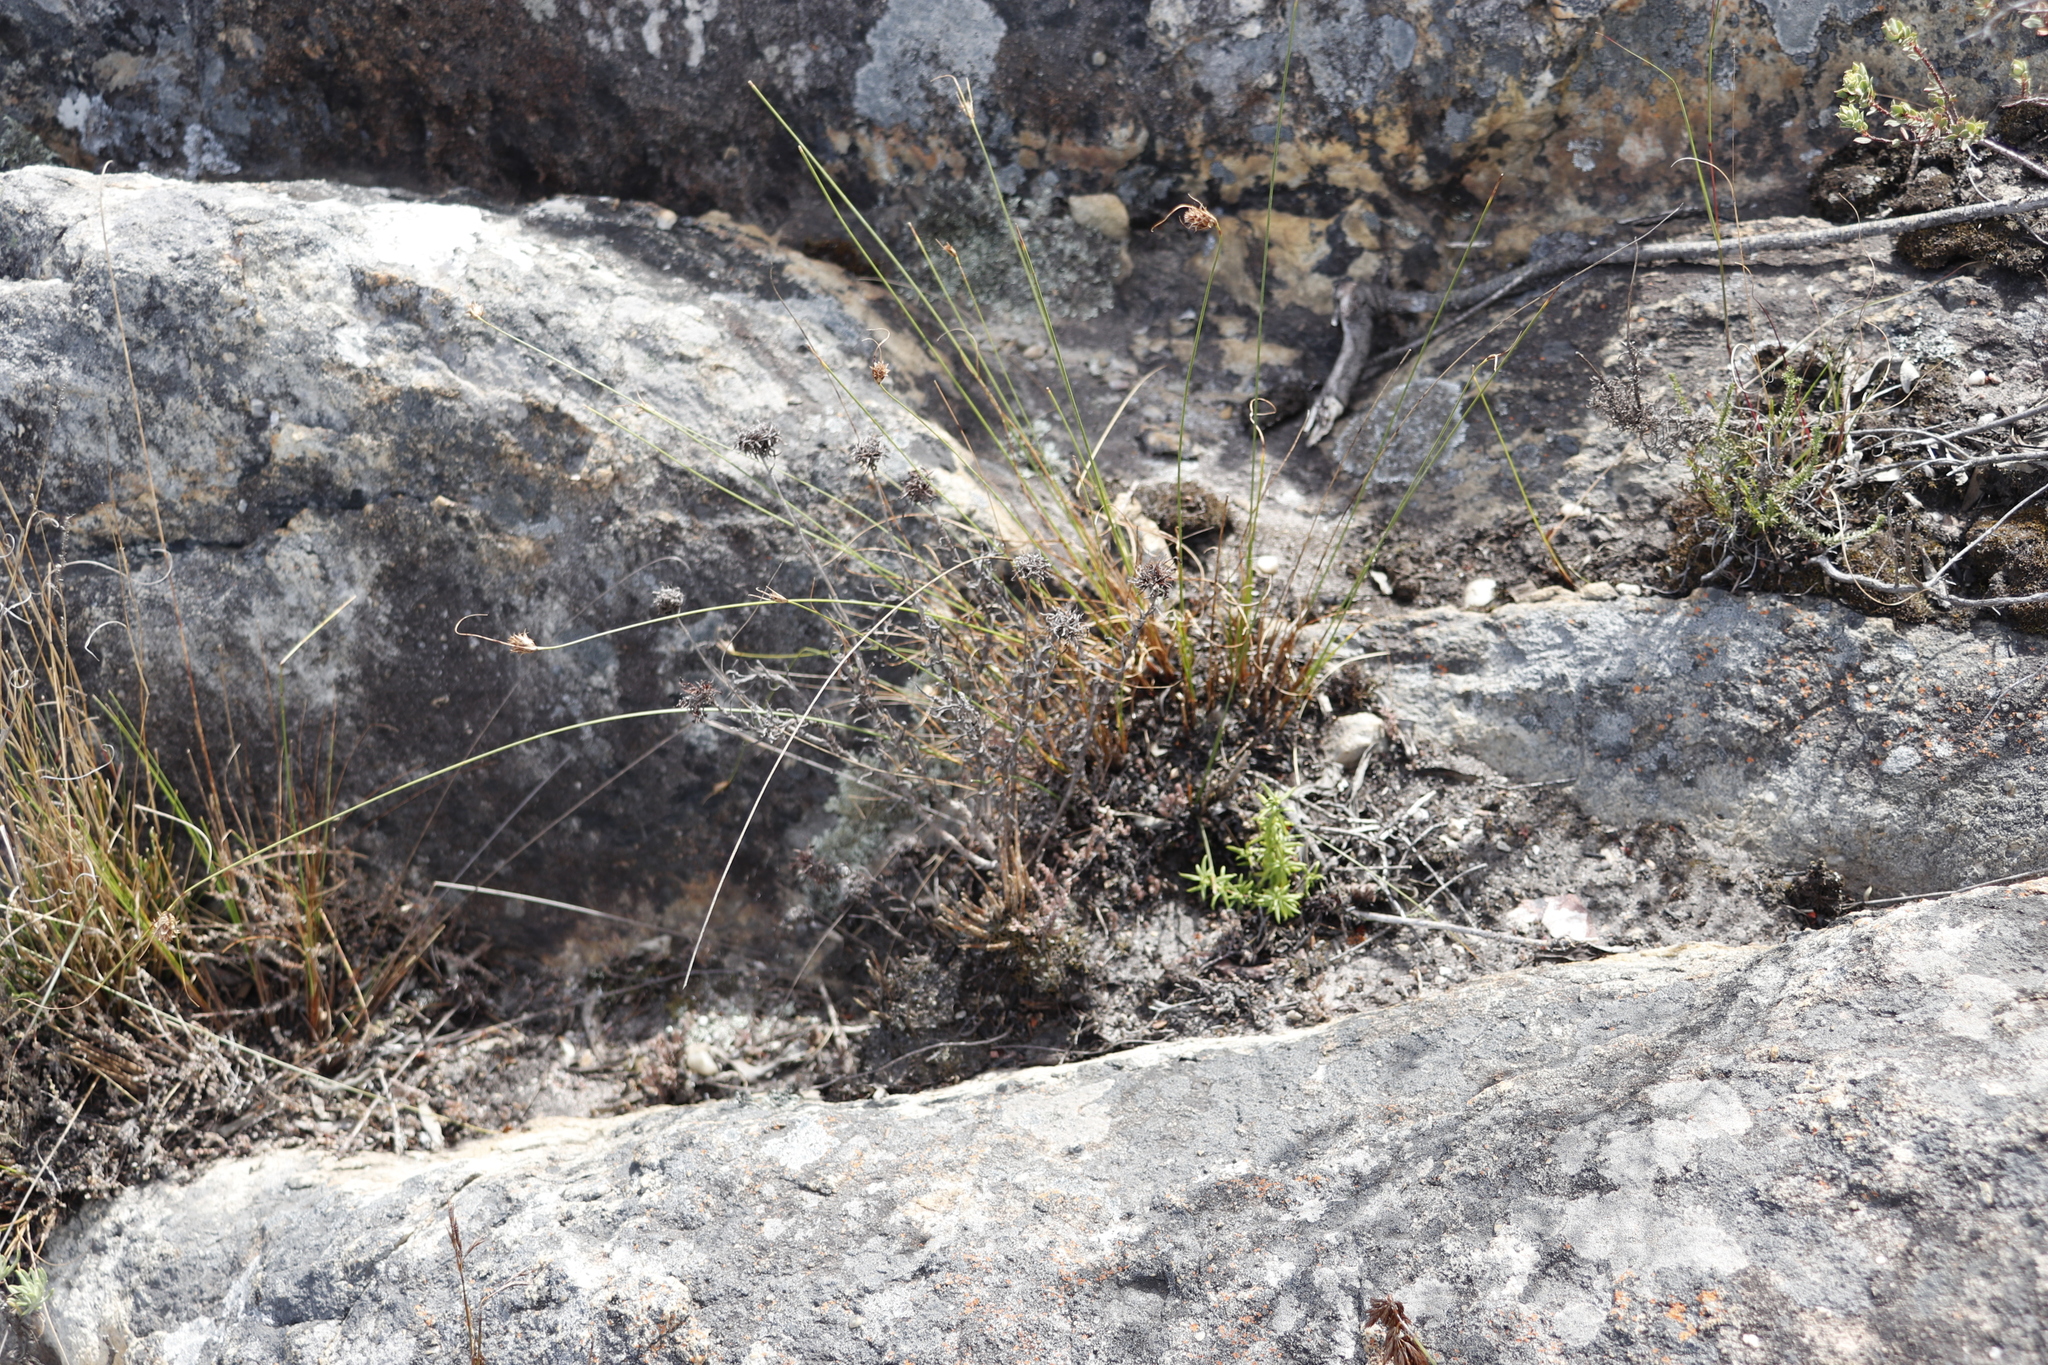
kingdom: Plantae
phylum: Tracheophyta
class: Liliopsida
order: Poales
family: Cyperaceae
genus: Ficinia
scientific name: Ficinia nigrescens
